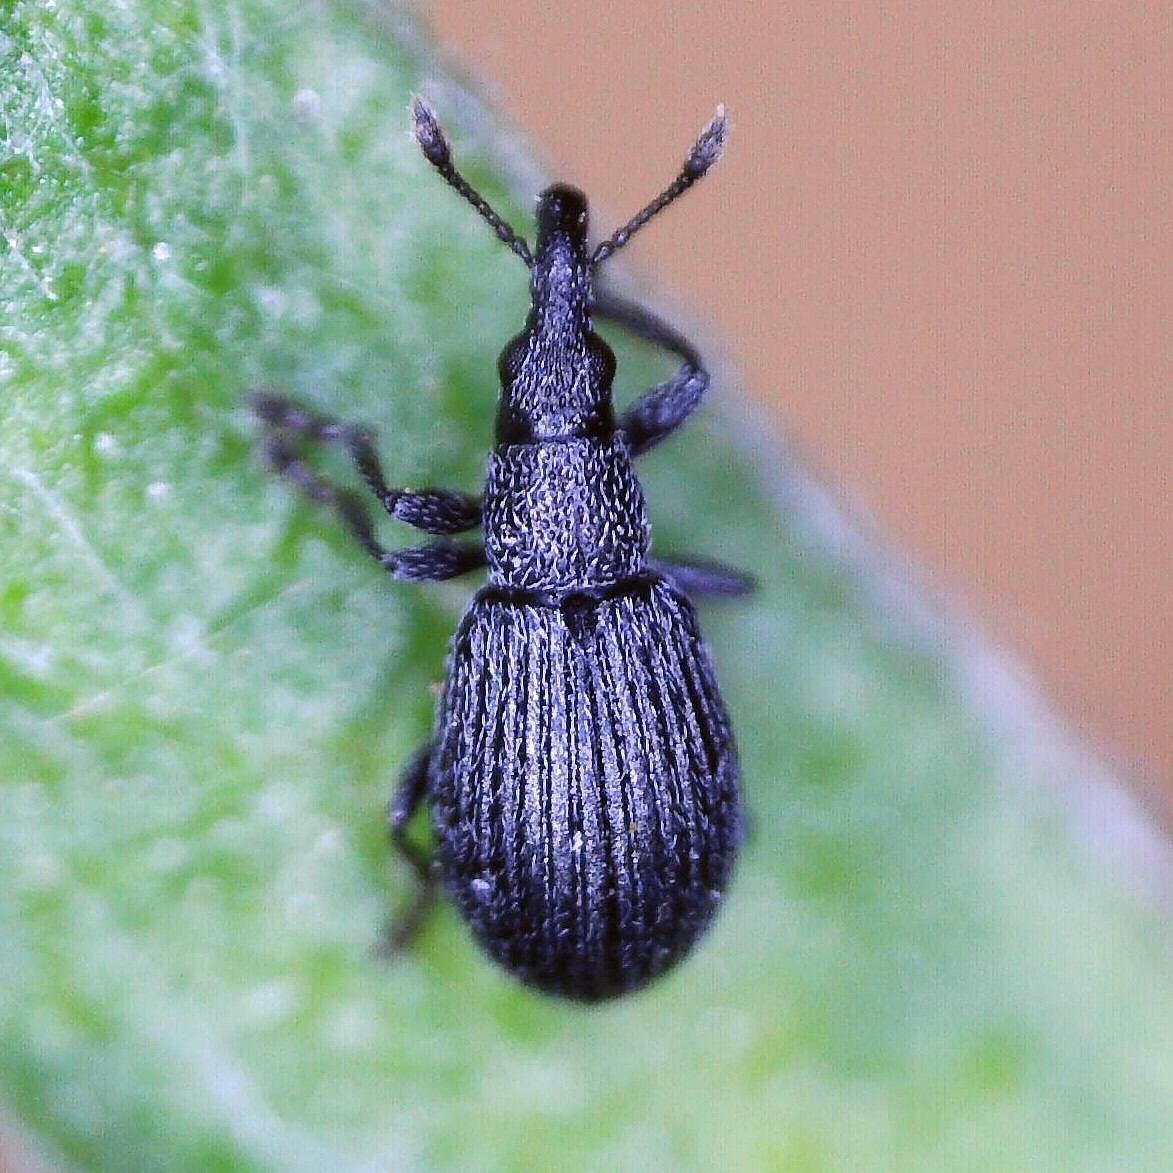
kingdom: Animalia
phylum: Arthropoda
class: Insecta
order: Coleoptera
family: Brentidae
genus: Perapion
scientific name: Perapion curtirostre
